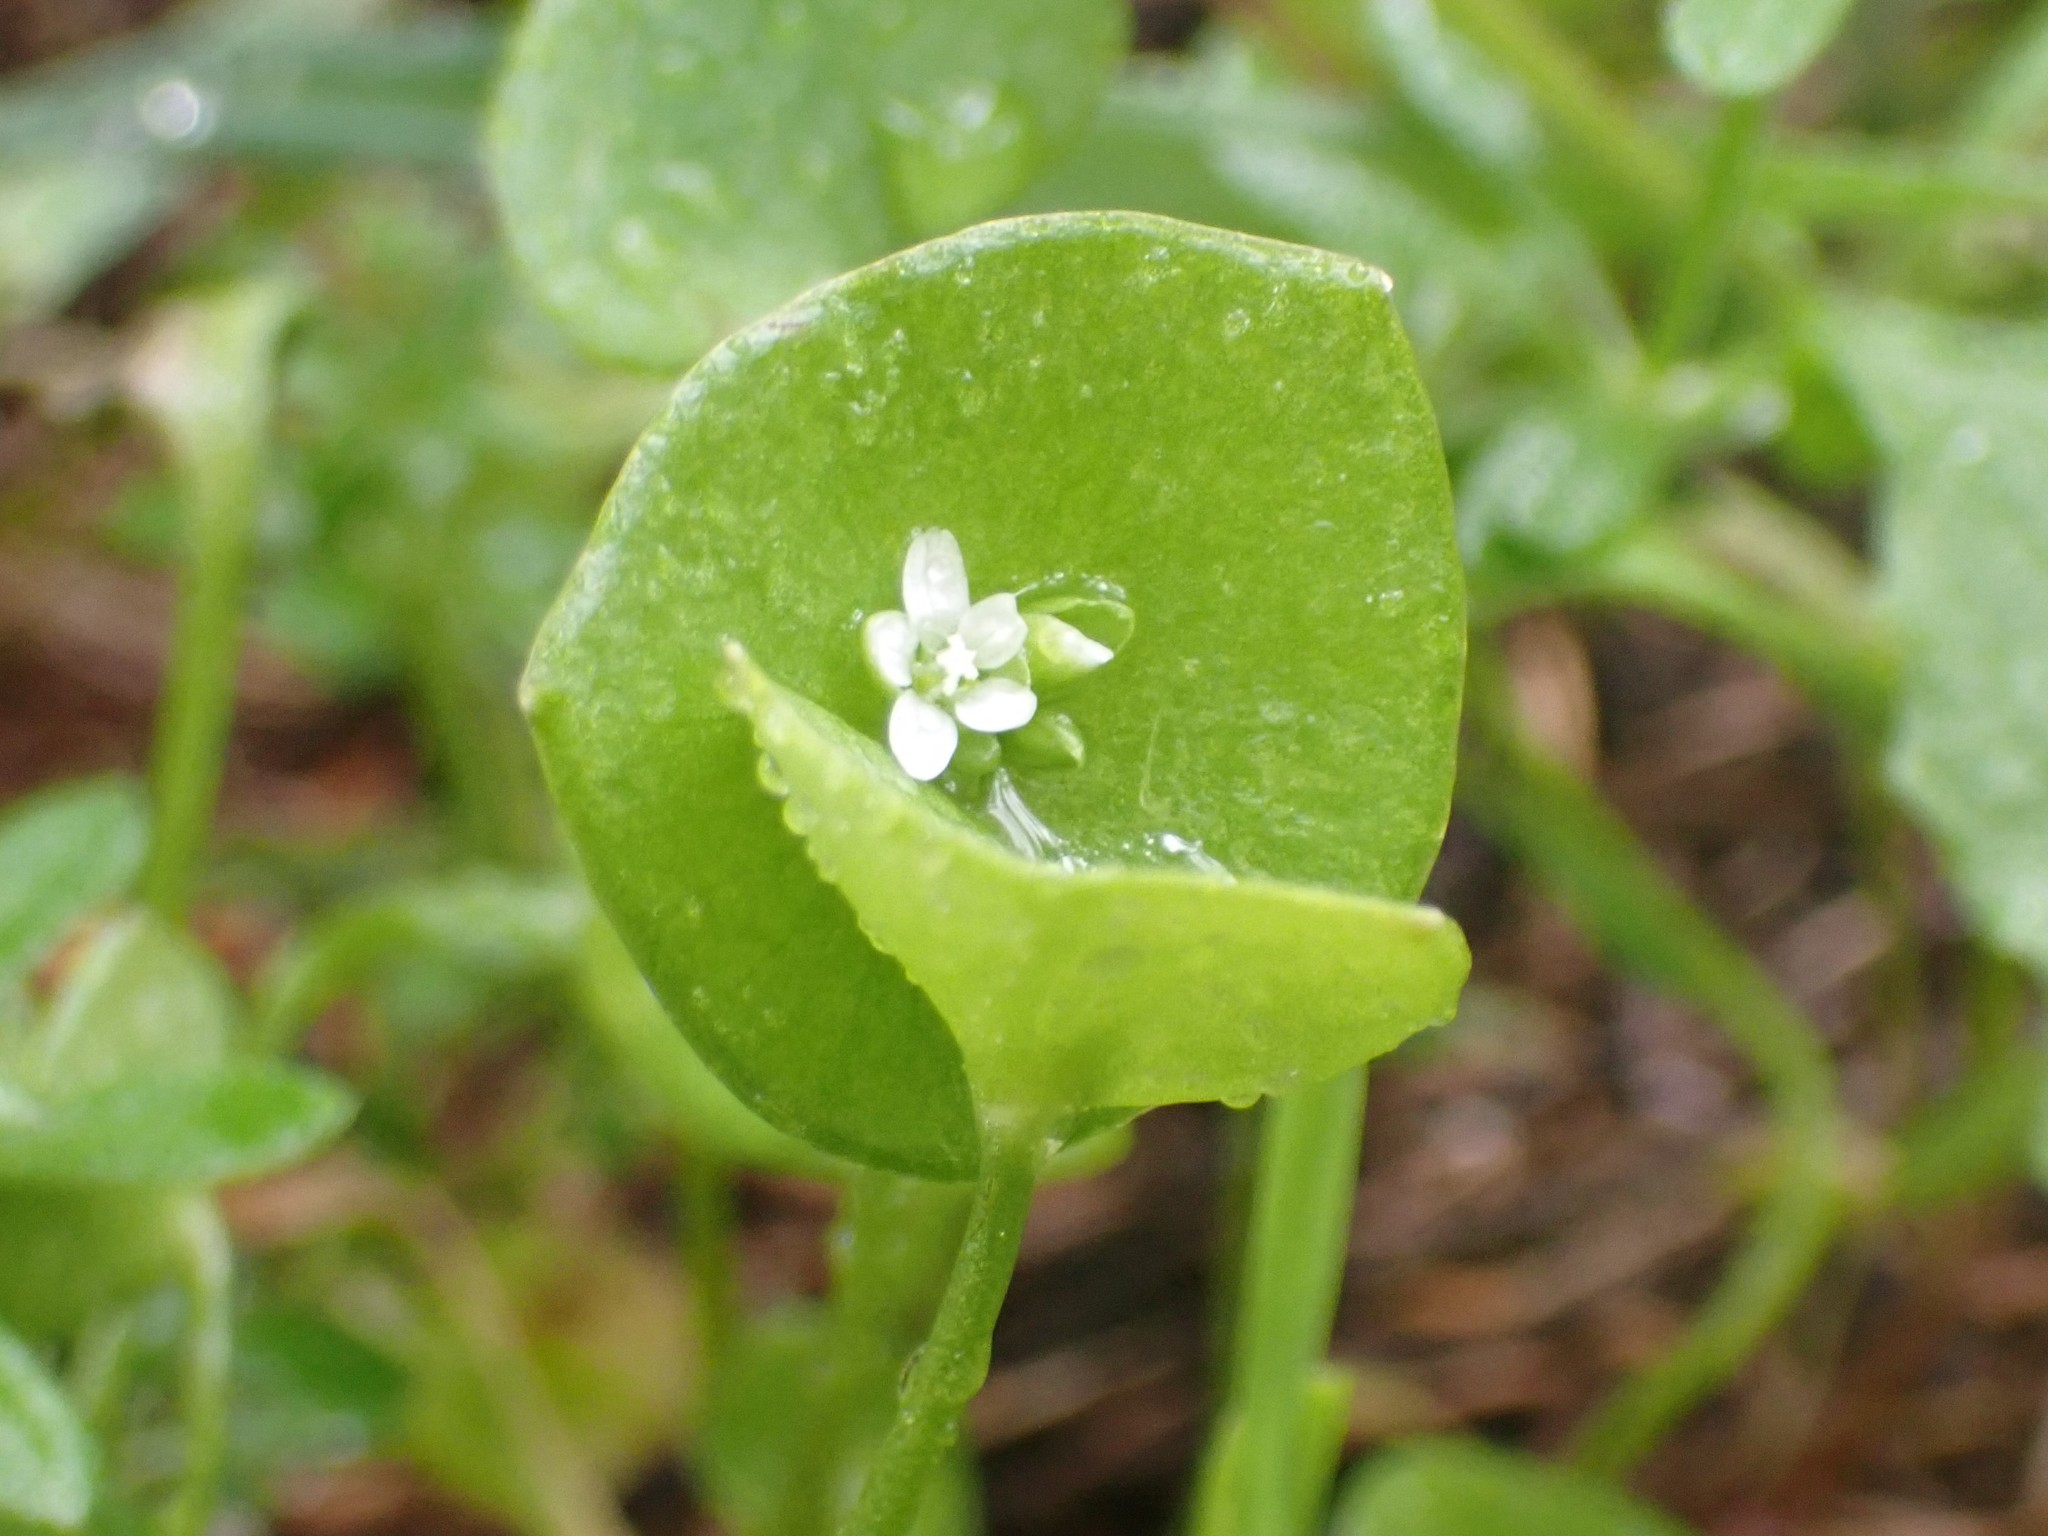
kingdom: Plantae
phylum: Tracheophyta
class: Magnoliopsida
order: Caryophyllales
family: Montiaceae
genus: Claytonia
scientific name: Claytonia perfoliata
